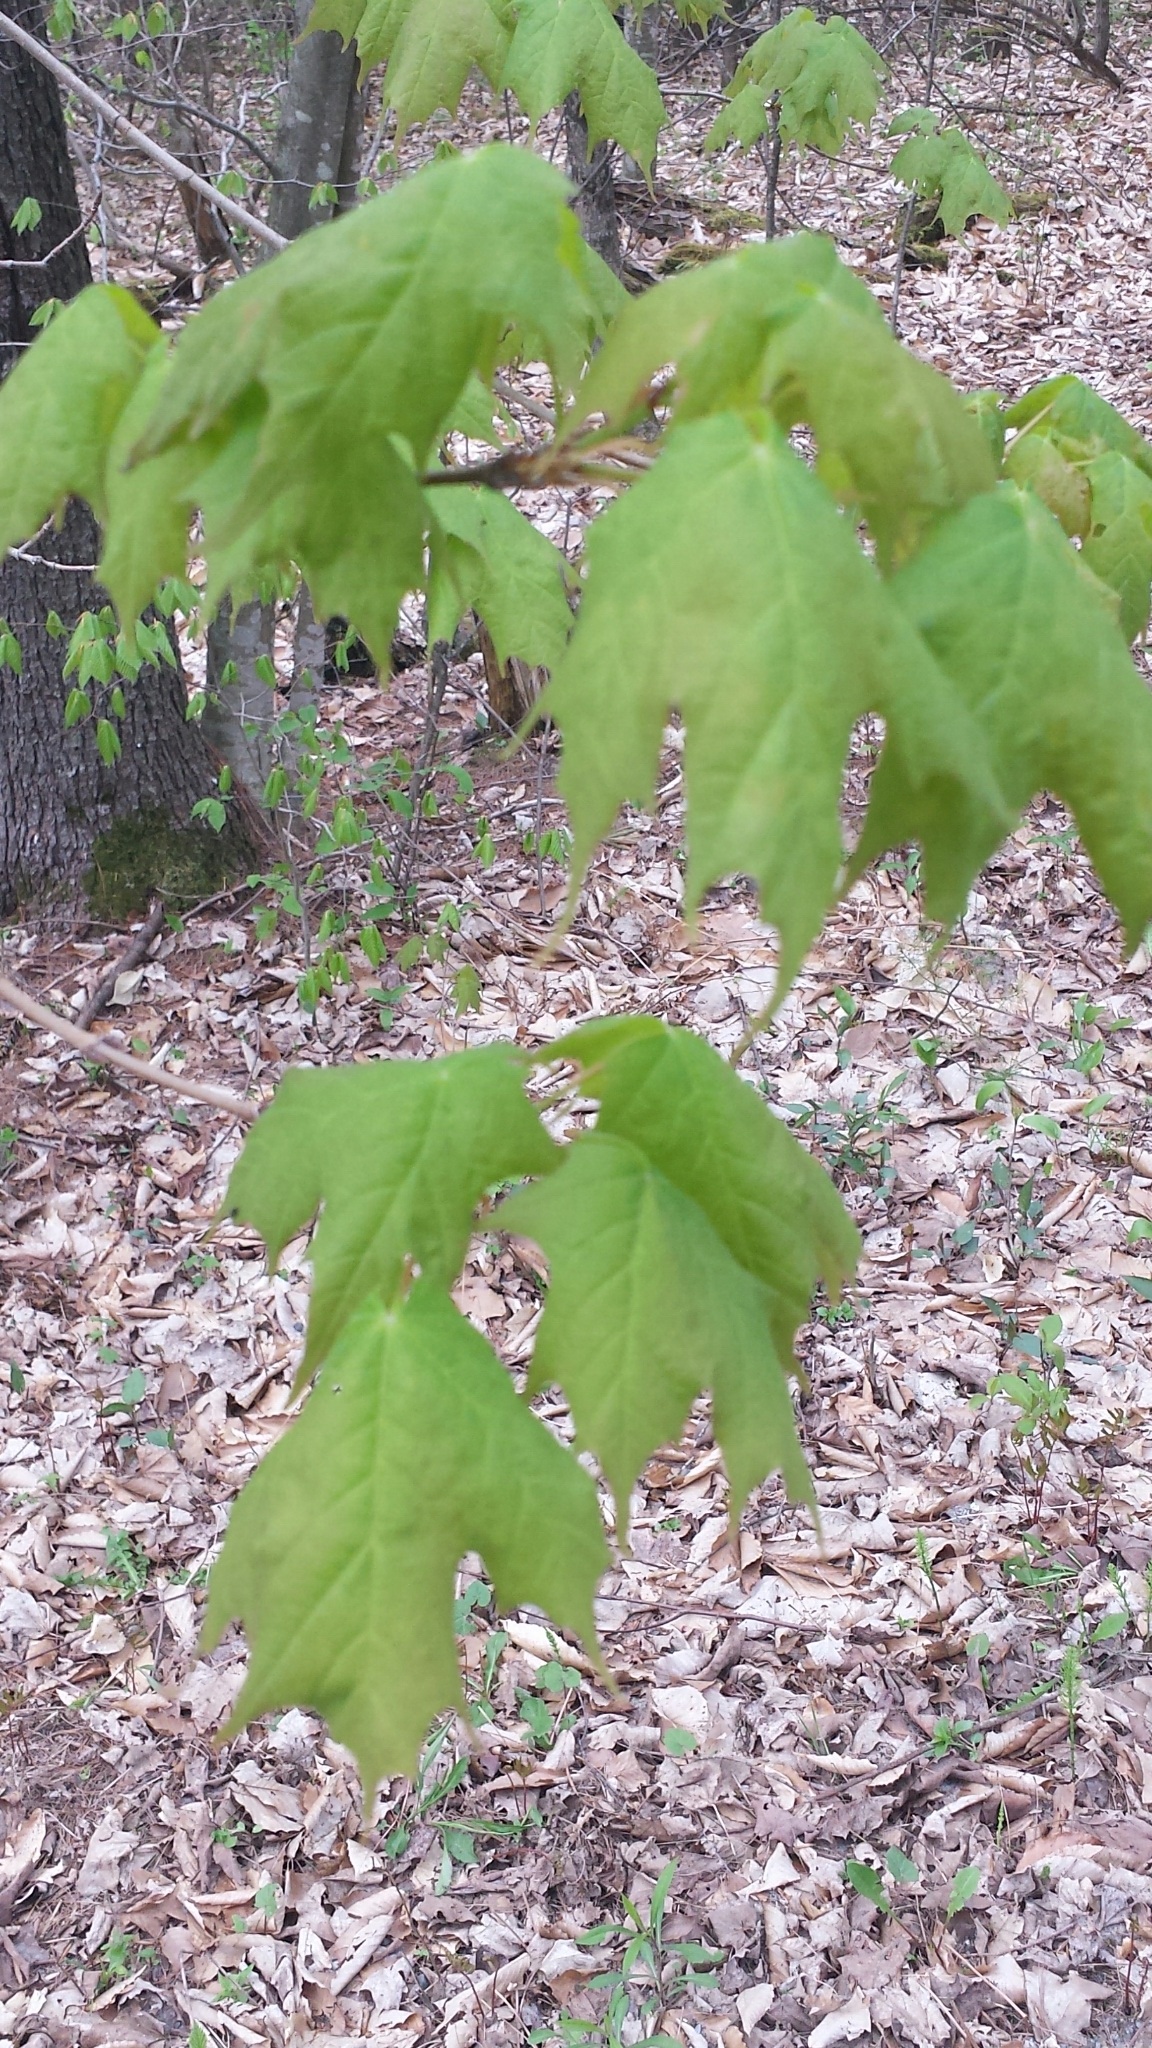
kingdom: Plantae
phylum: Tracheophyta
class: Magnoliopsida
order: Sapindales
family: Sapindaceae
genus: Acer
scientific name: Acer saccharum
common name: Sugar maple
